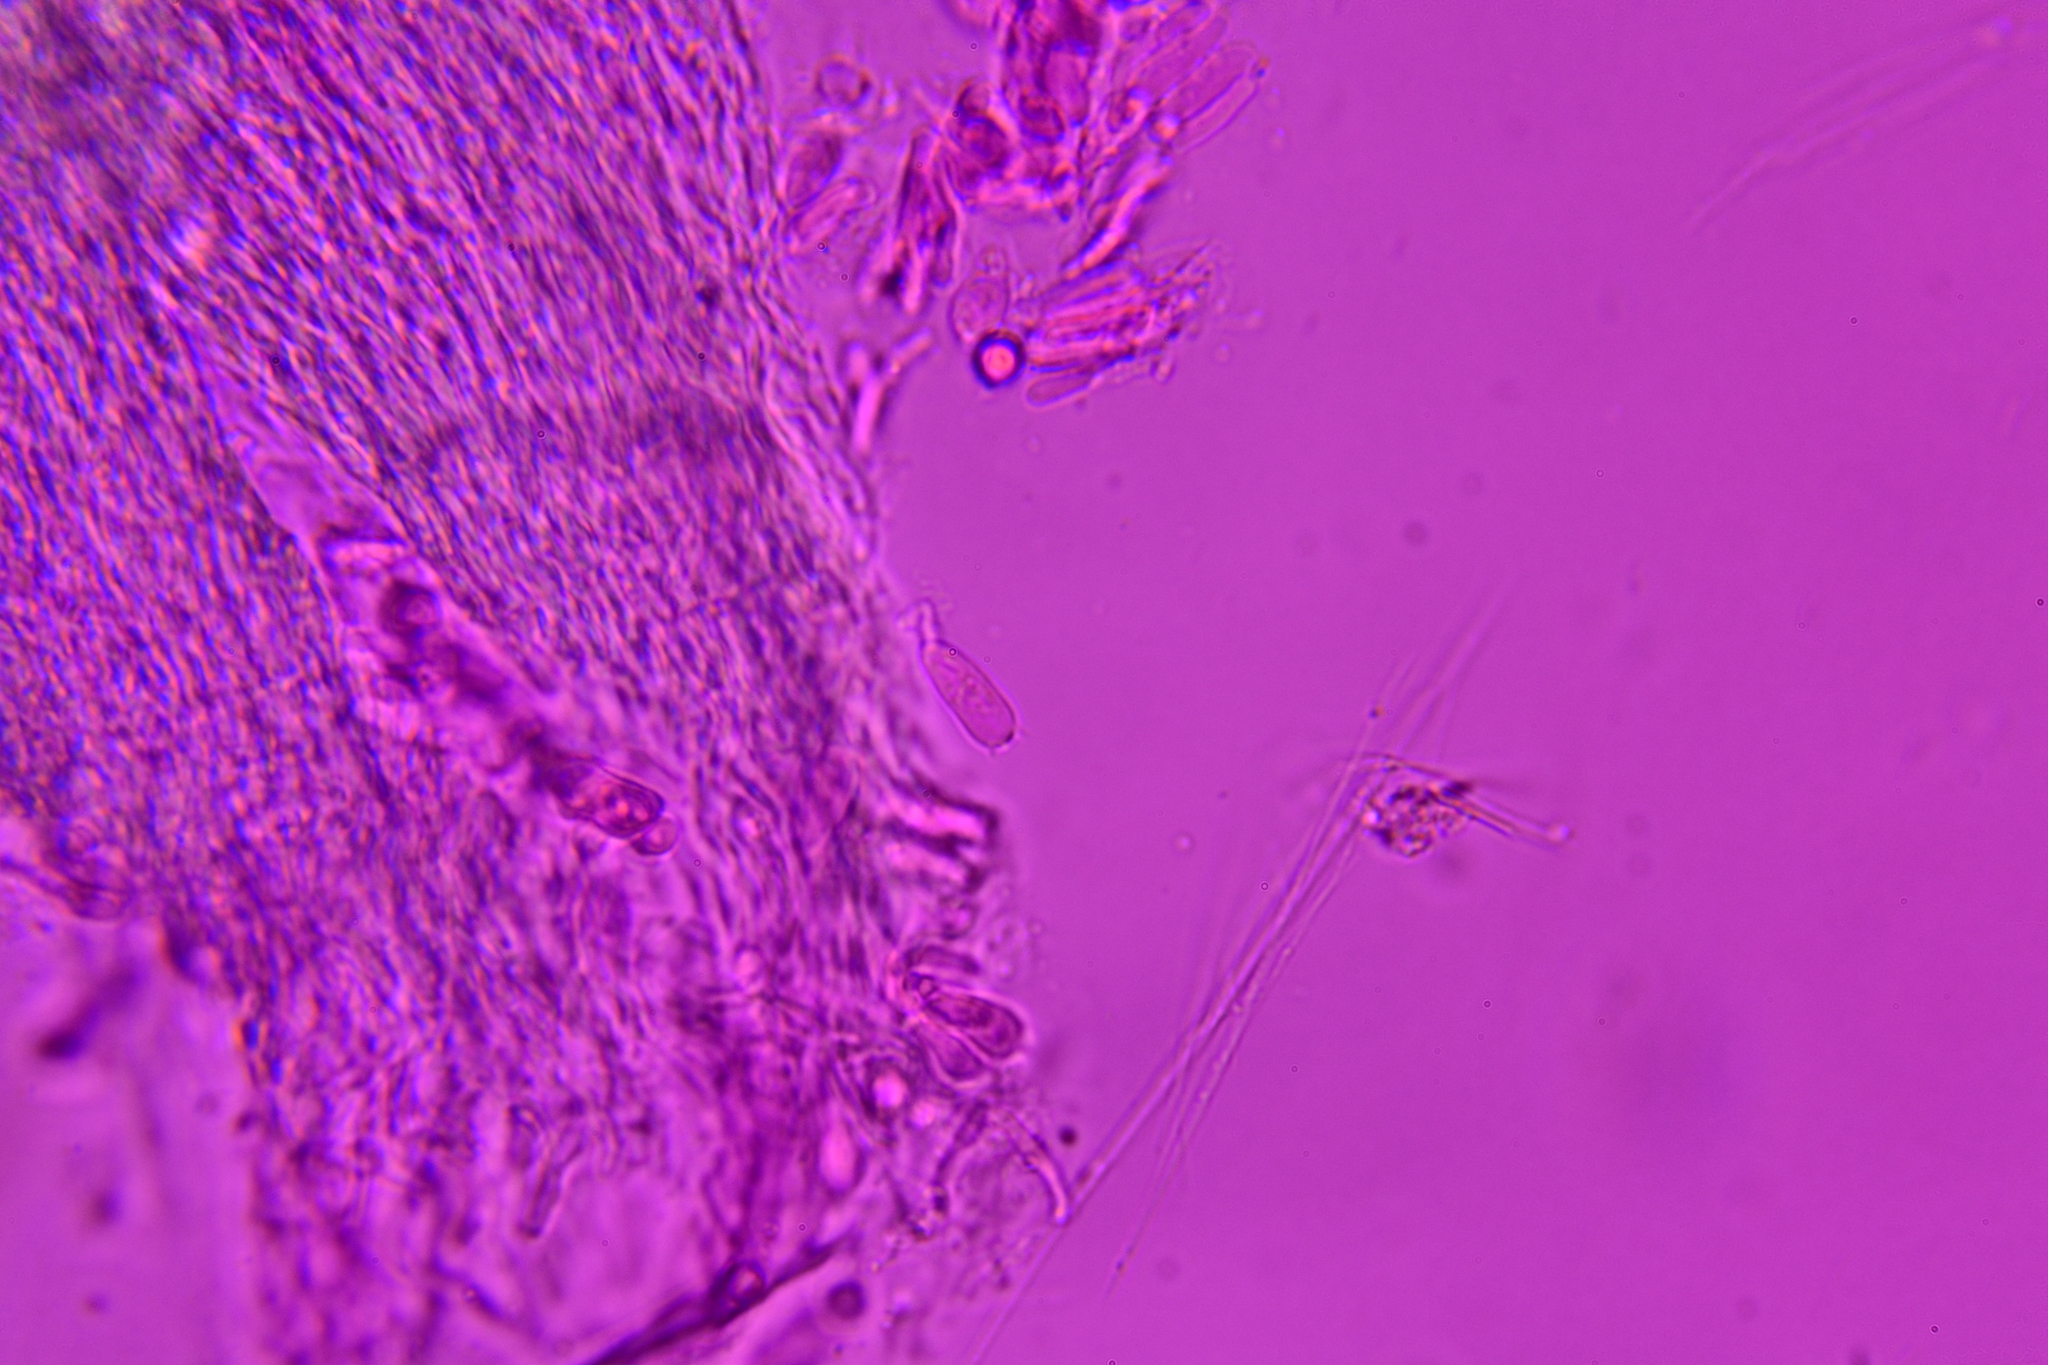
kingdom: Fungi
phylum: Basidiomycota
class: Agaricomycetes
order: Agaricales
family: Marasmiaceae
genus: Henningsomyces
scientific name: Henningsomyces candidus
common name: White tubelet
